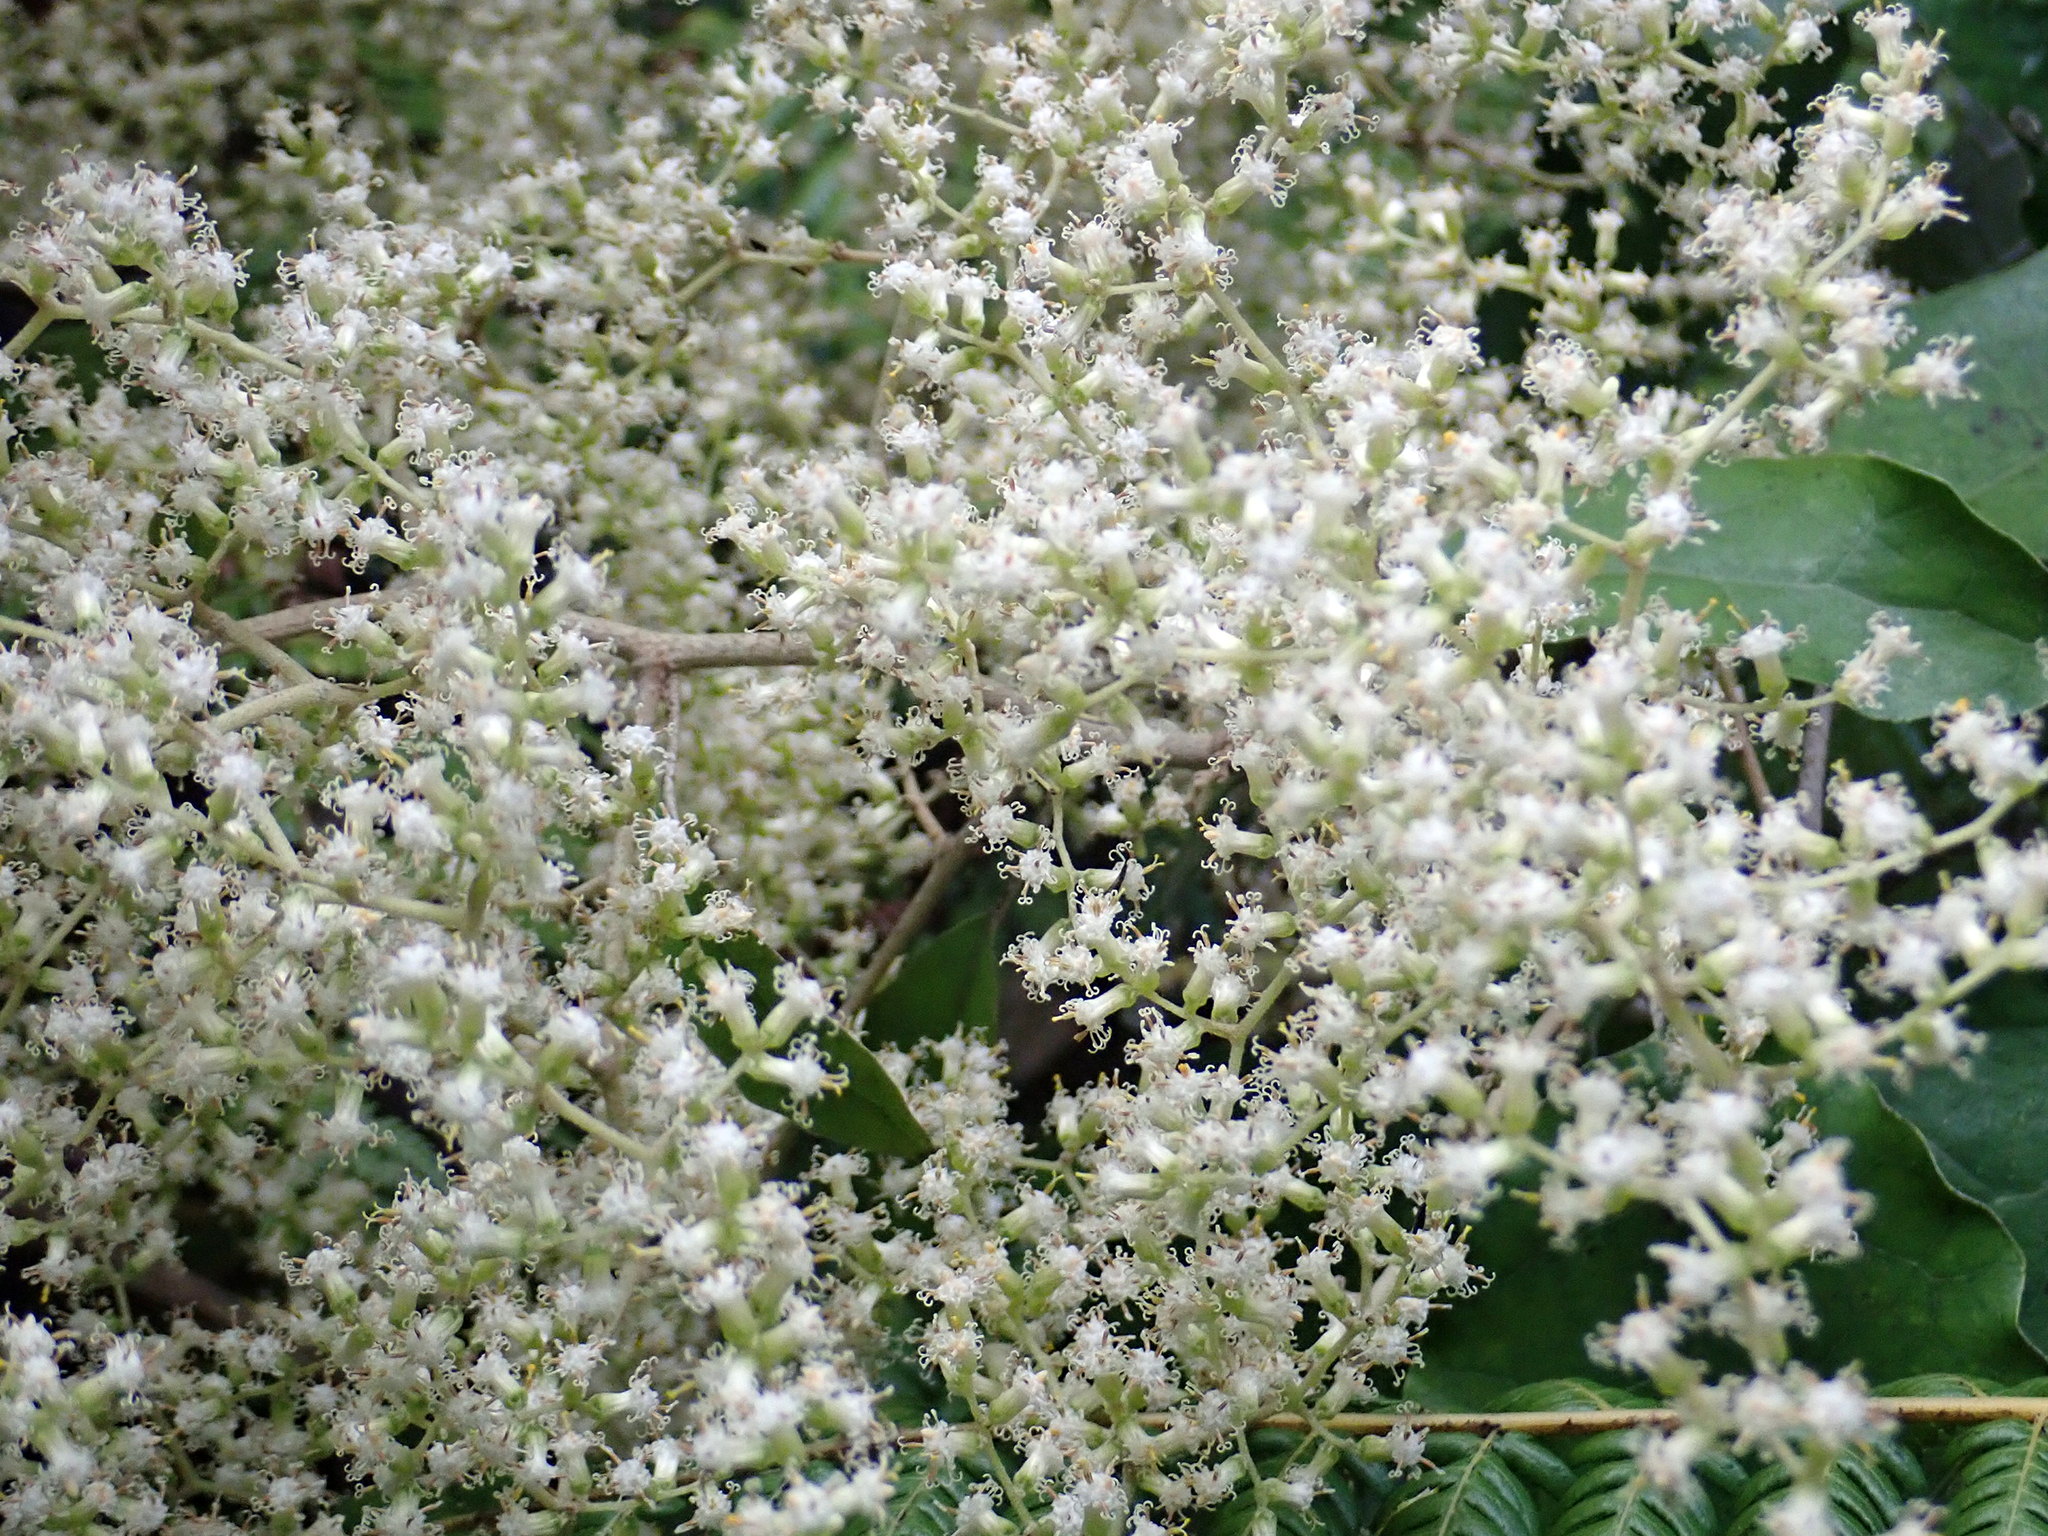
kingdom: Plantae
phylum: Tracheophyta
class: Magnoliopsida
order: Asterales
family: Asteraceae
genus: Brachyglottis
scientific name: Brachyglottis repanda
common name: Hedge ragwort
